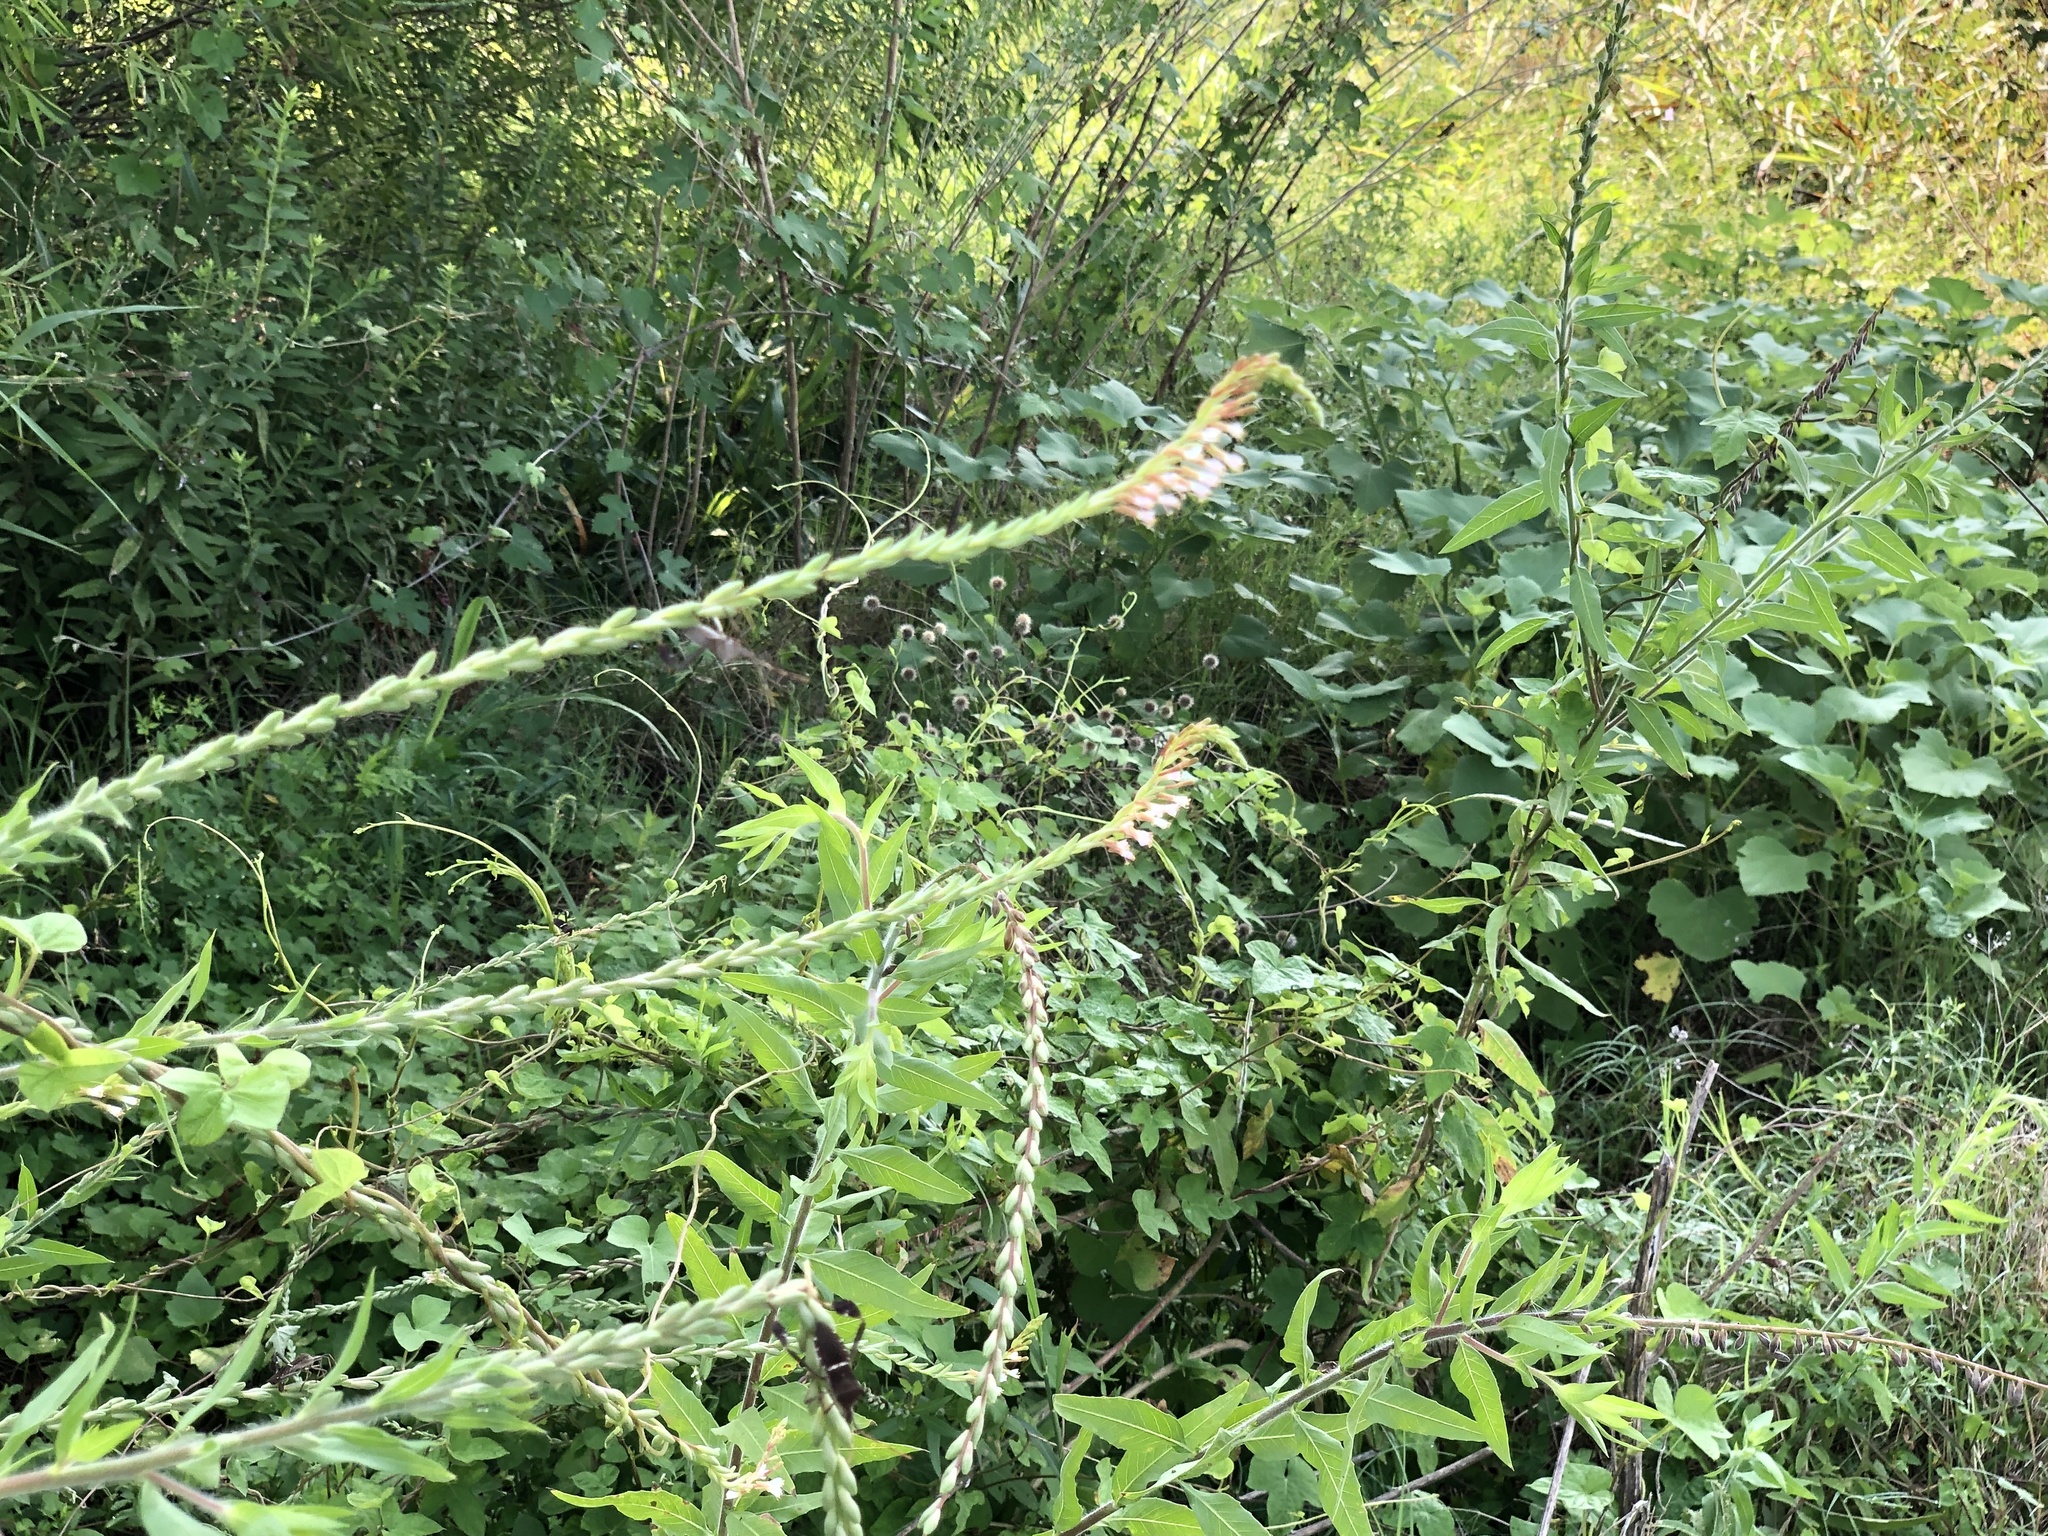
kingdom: Plantae
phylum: Tracheophyta
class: Magnoliopsida
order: Myrtales
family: Onagraceae
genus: Oenothera
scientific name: Oenothera curtiflora
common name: Velvetweed
